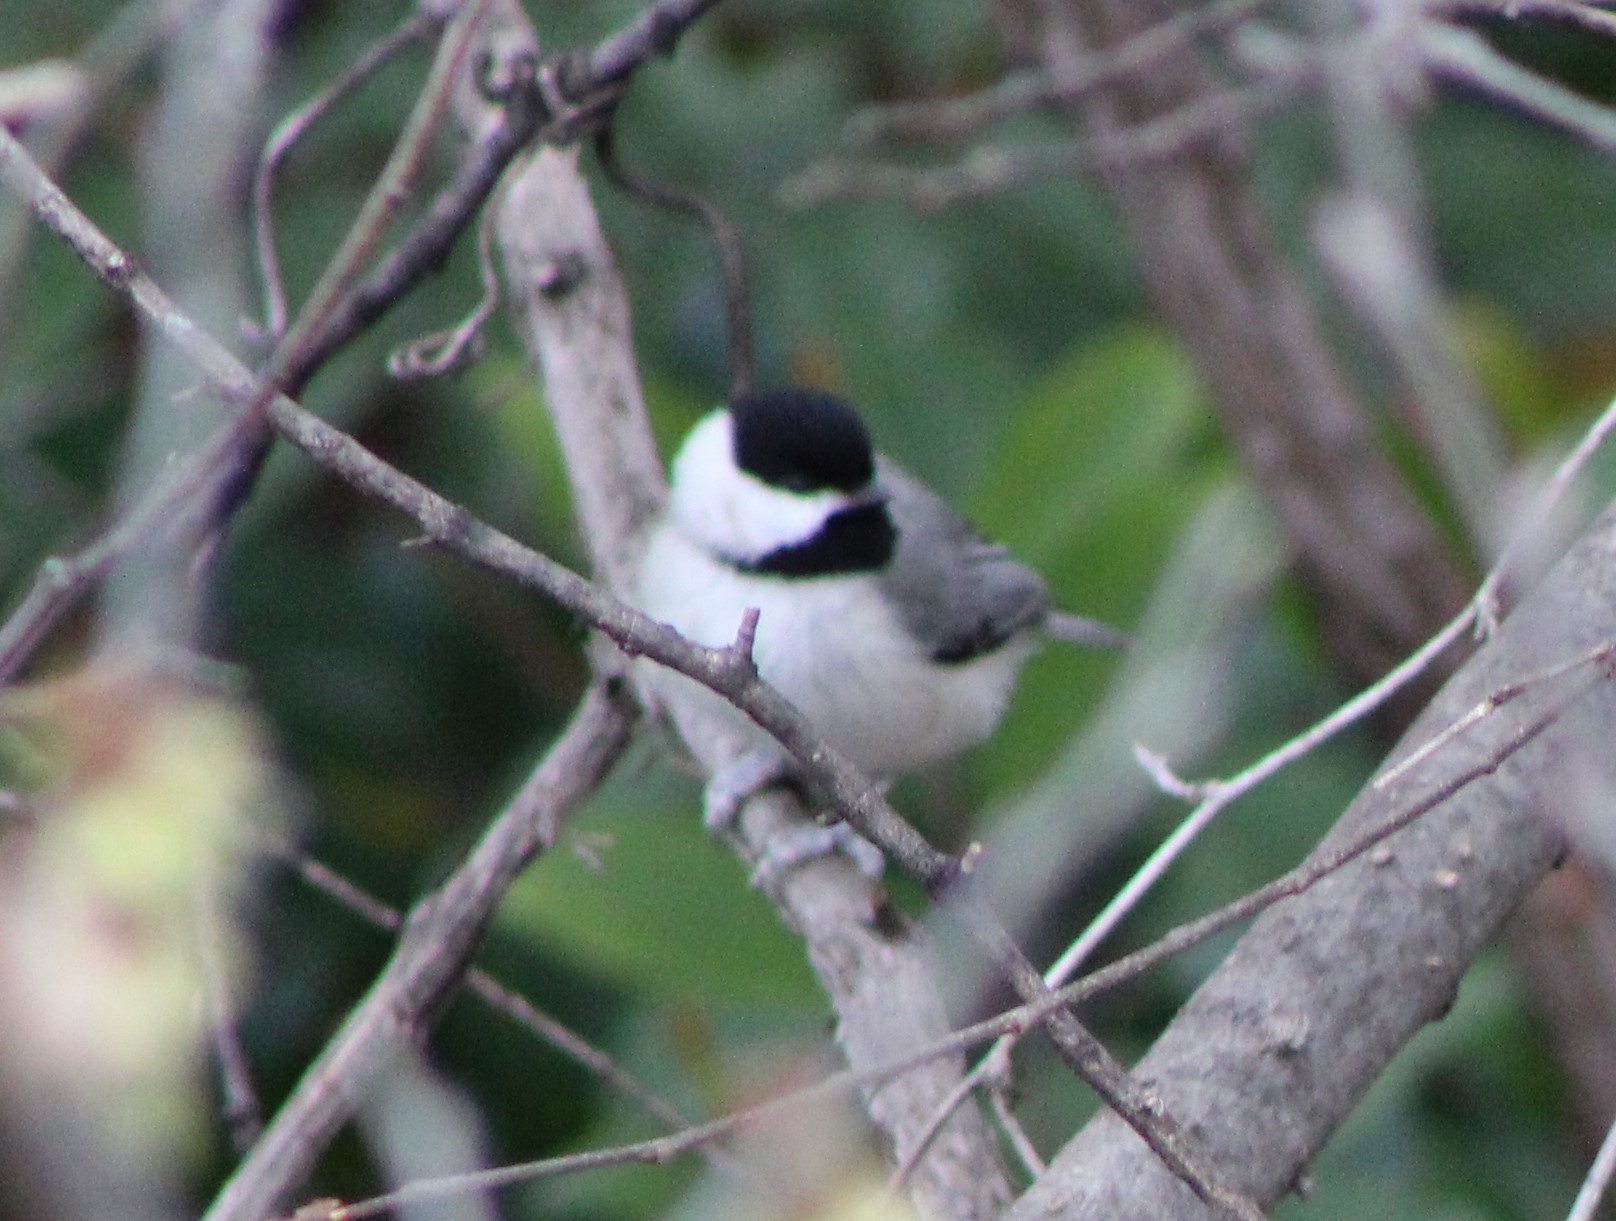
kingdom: Animalia
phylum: Chordata
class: Aves
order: Passeriformes
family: Paridae
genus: Poecile
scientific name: Poecile carolinensis
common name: Carolina chickadee
